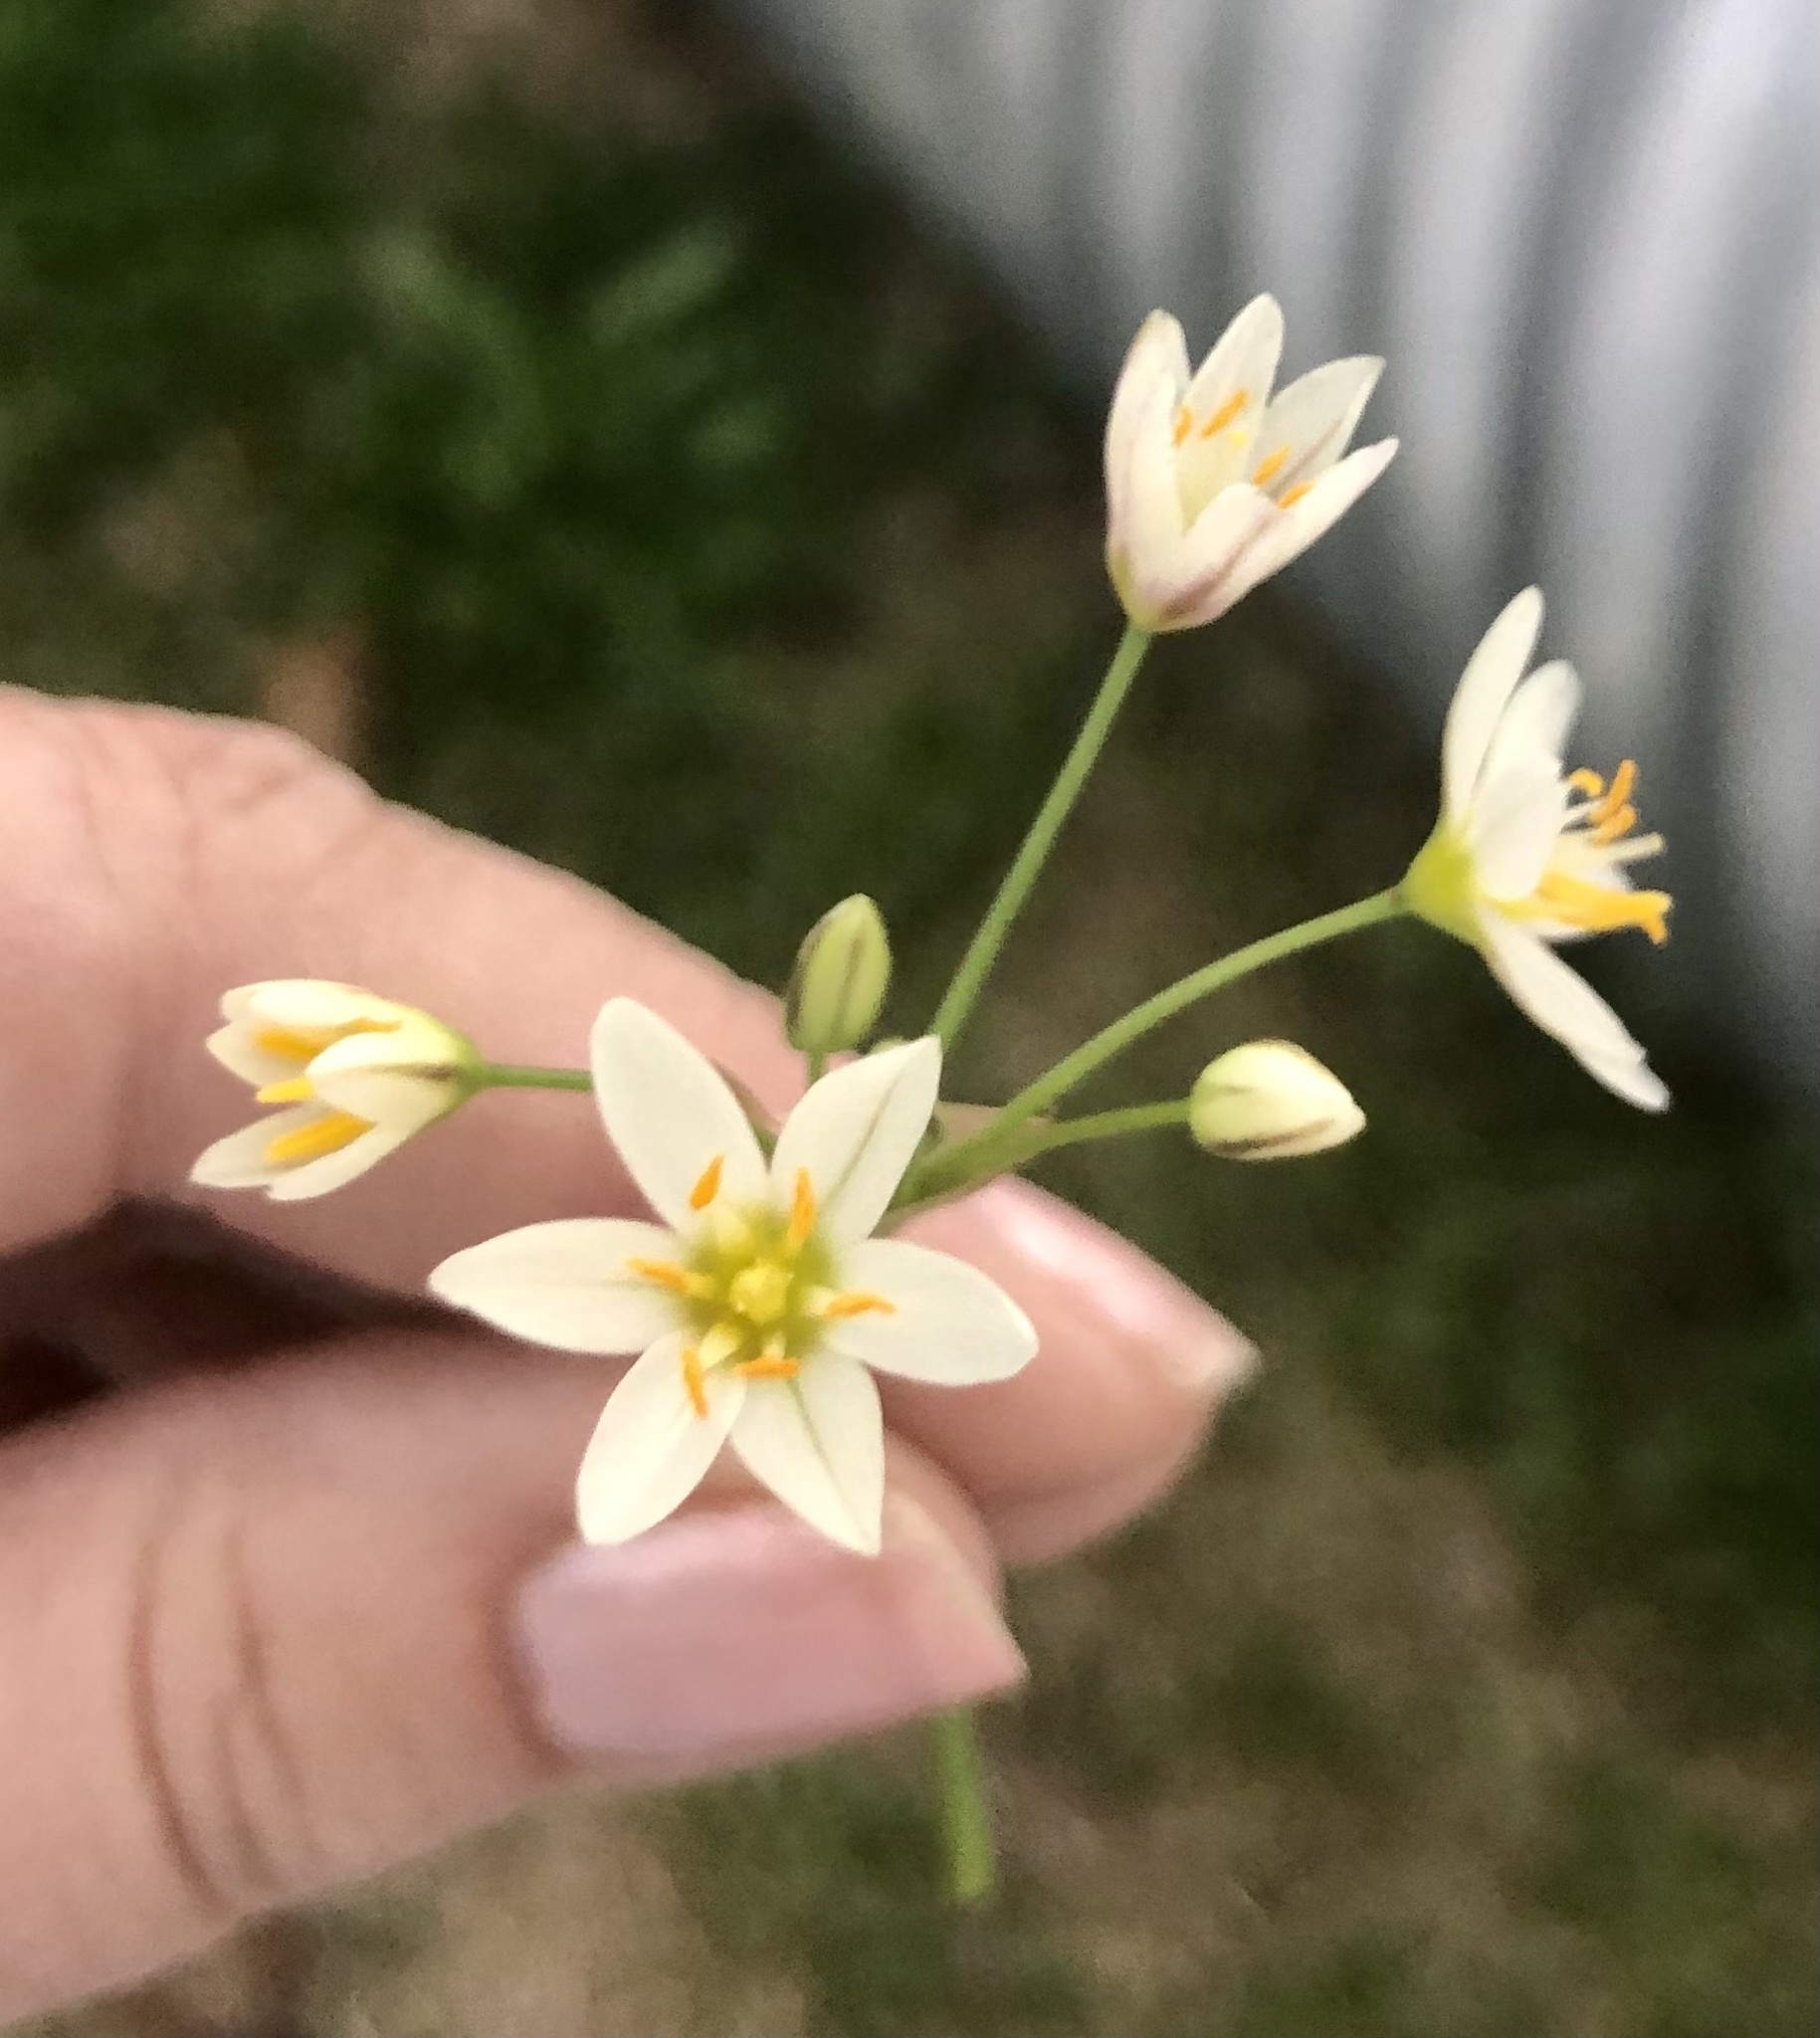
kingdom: Plantae
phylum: Tracheophyta
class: Liliopsida
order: Asparagales
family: Amaryllidaceae
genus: Nothoscordum
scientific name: Nothoscordum bivalve
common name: Crow-poison
